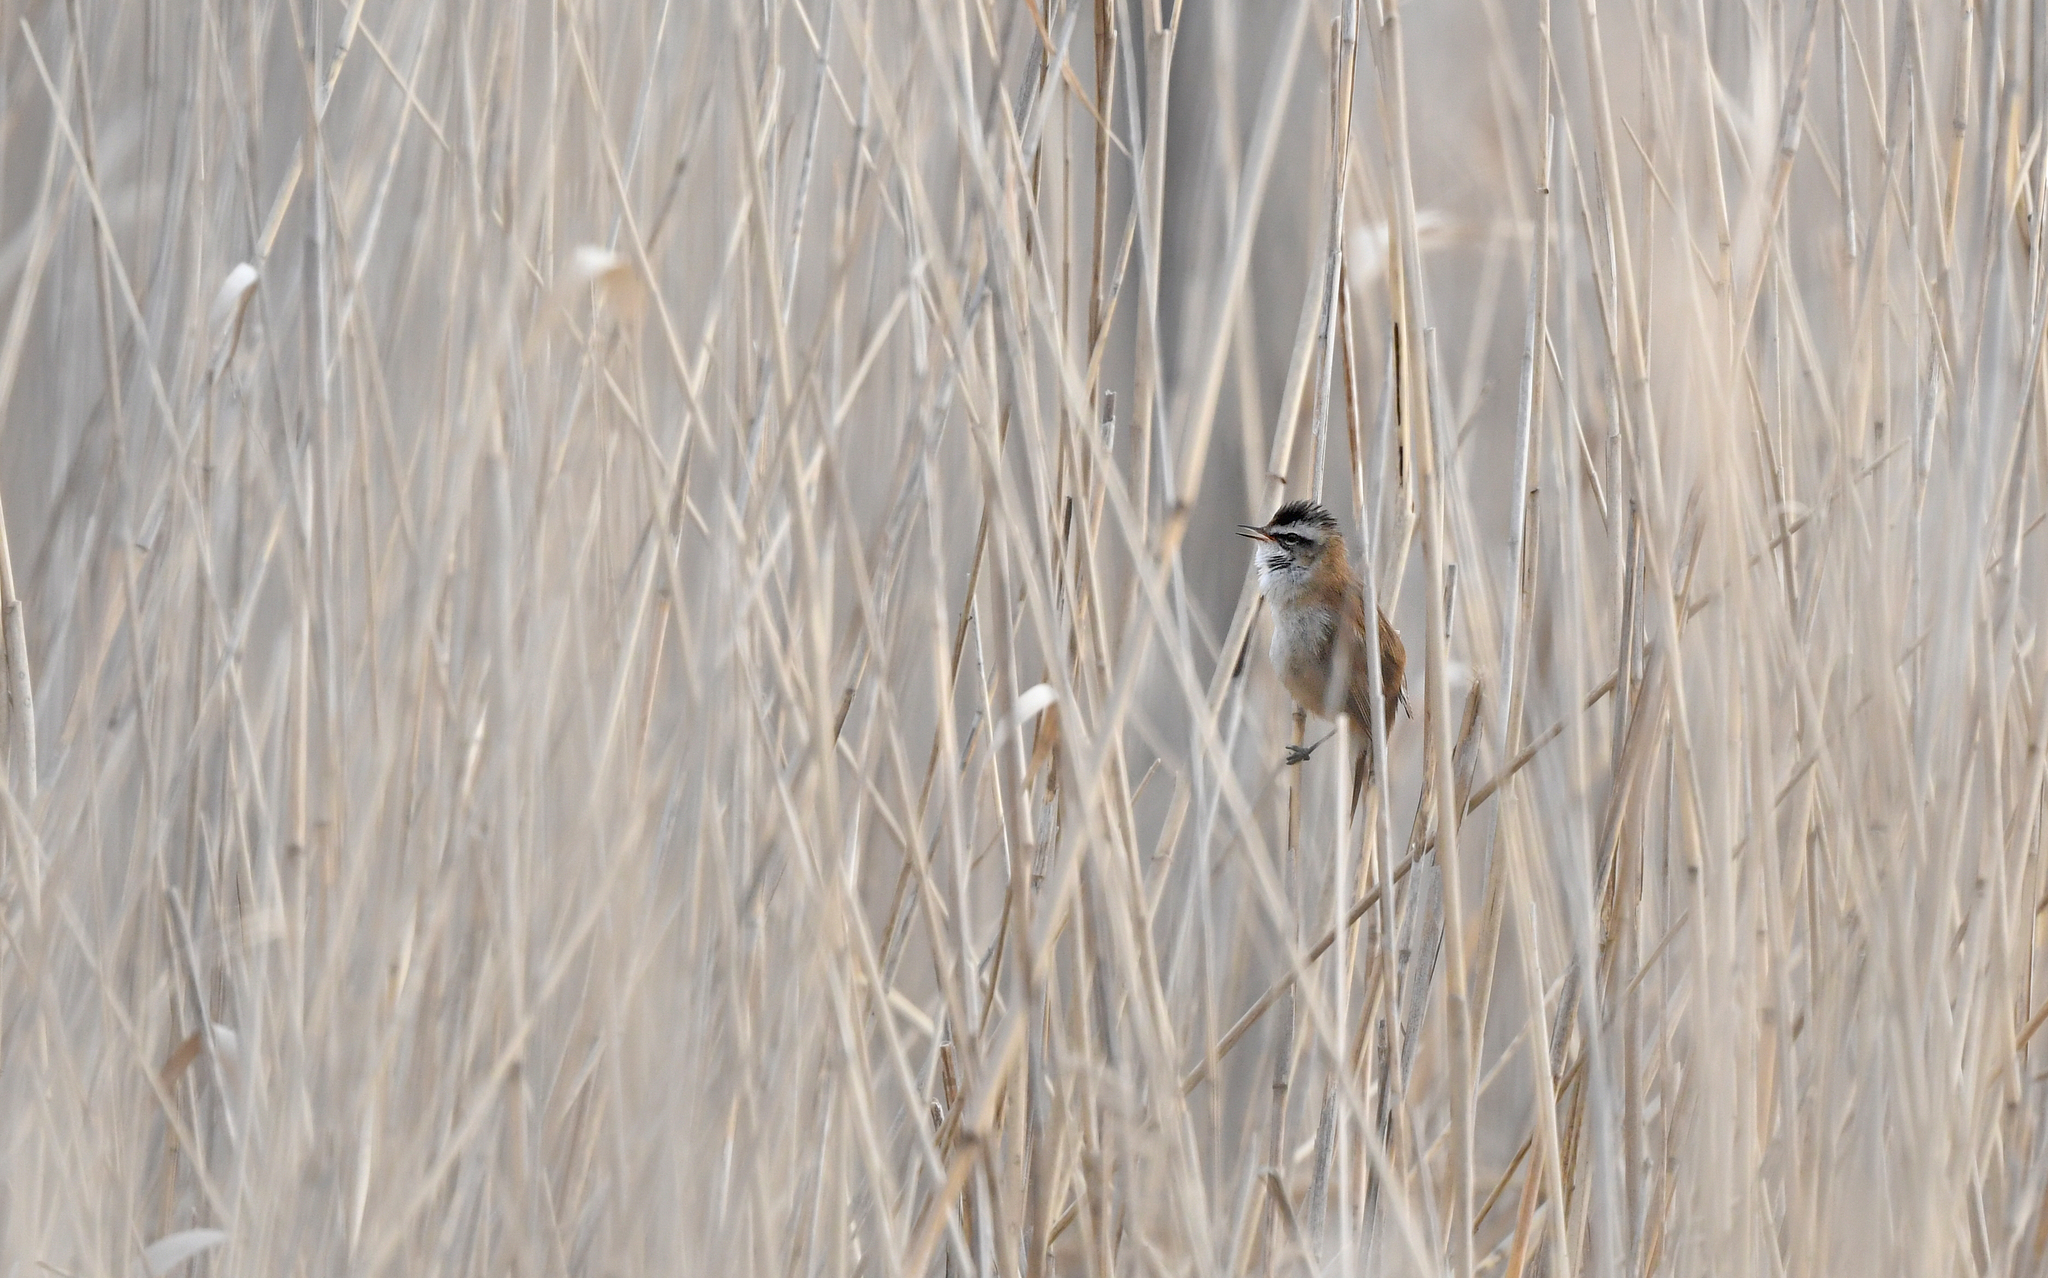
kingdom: Animalia
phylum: Chordata
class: Aves
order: Passeriformes
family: Acrocephalidae
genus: Acrocephalus
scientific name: Acrocephalus melanopogon
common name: Moustached warbler
